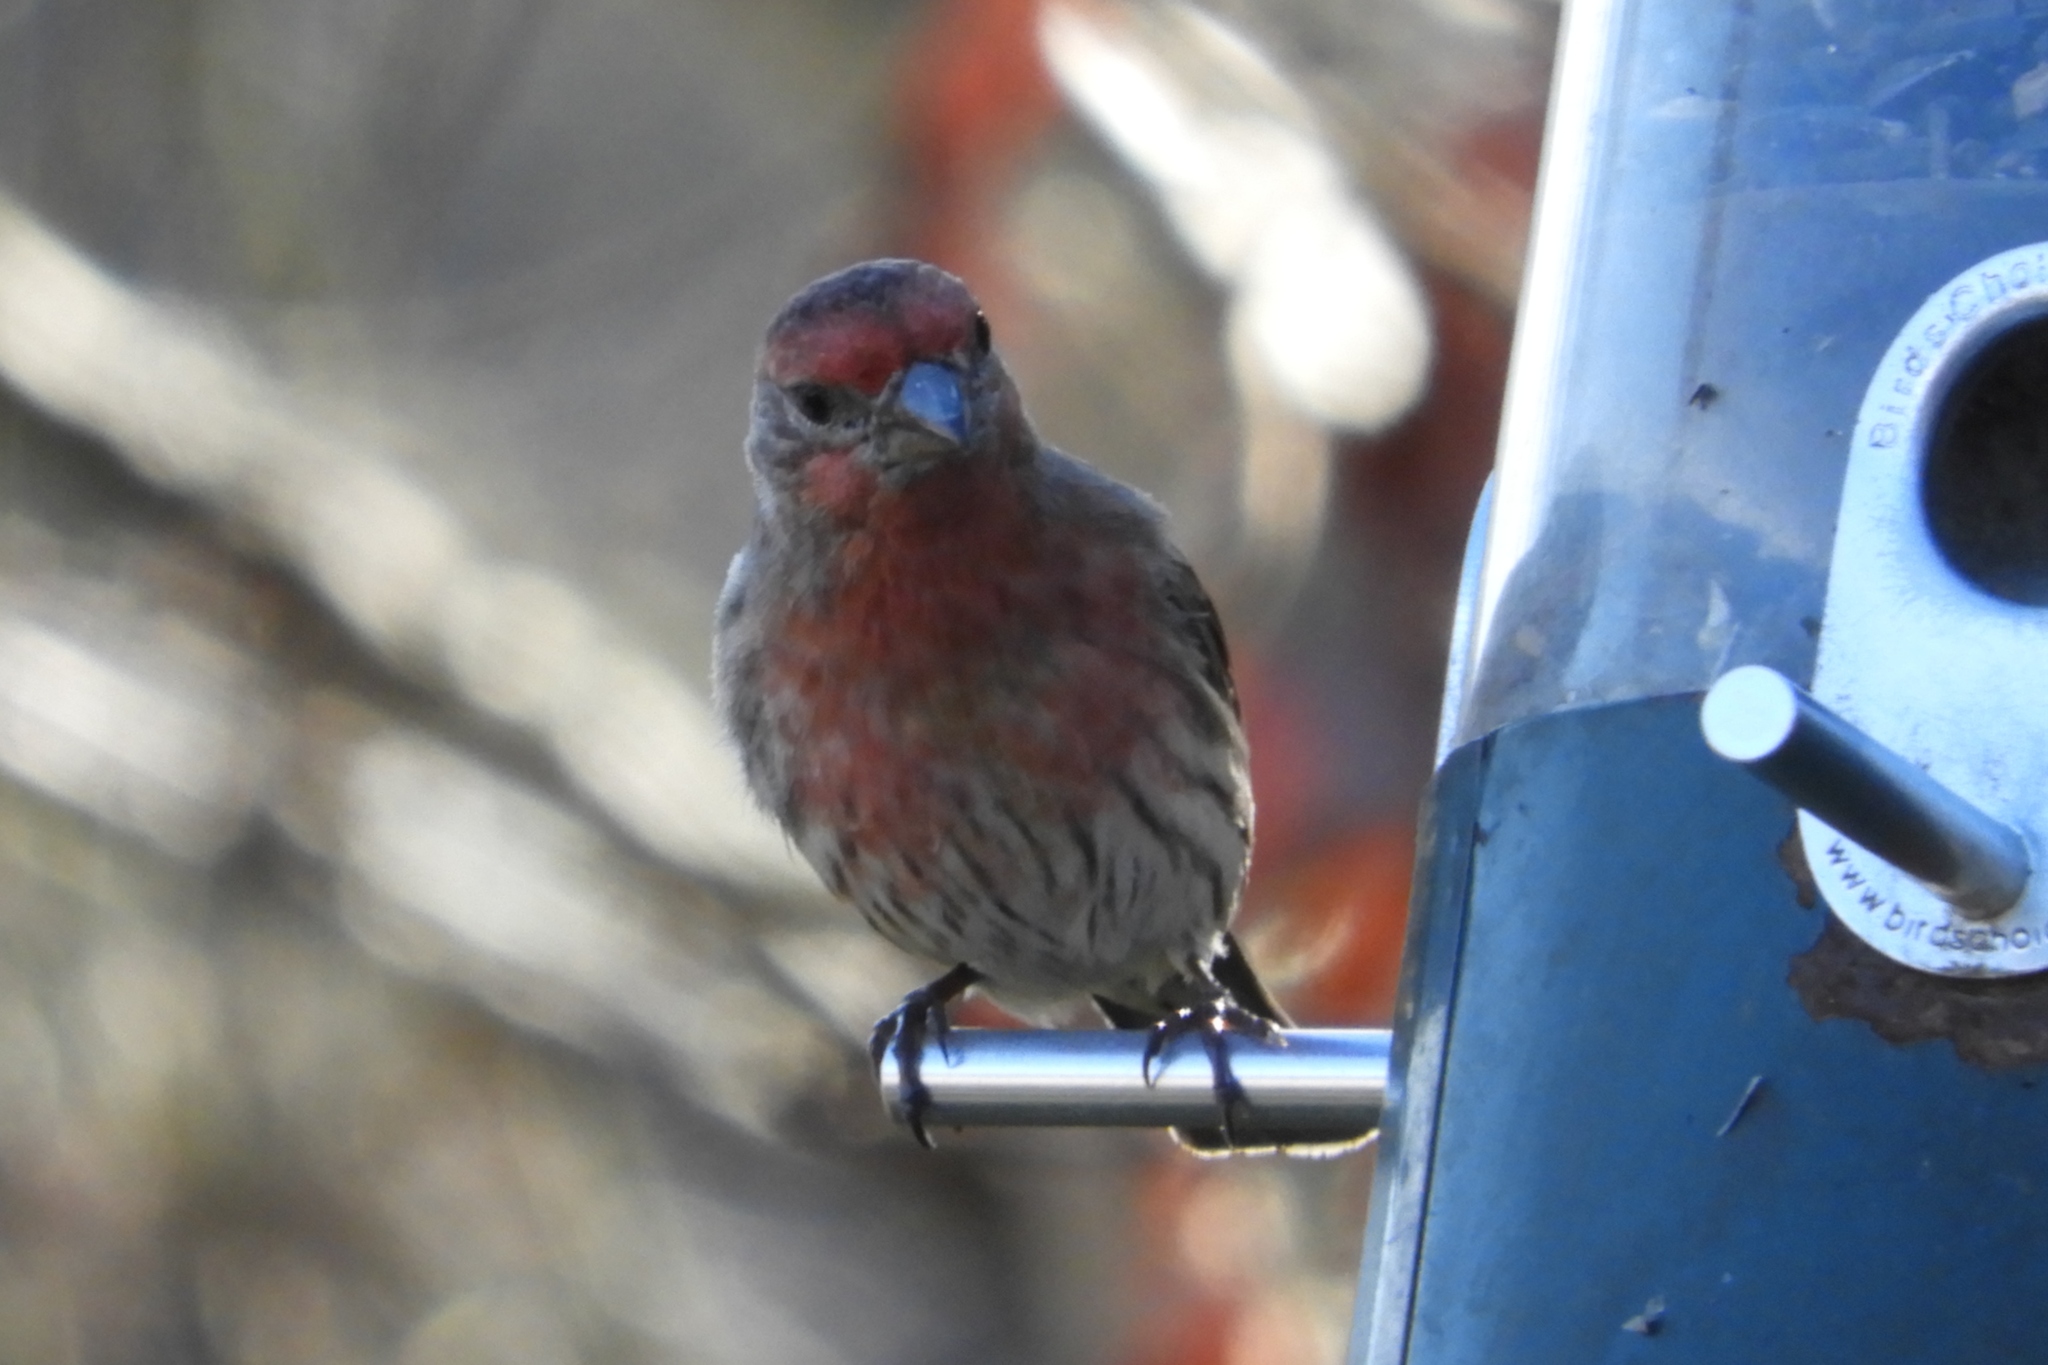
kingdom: Animalia
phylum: Chordata
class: Aves
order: Passeriformes
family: Fringillidae
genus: Haemorhous
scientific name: Haemorhous mexicanus
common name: House finch
